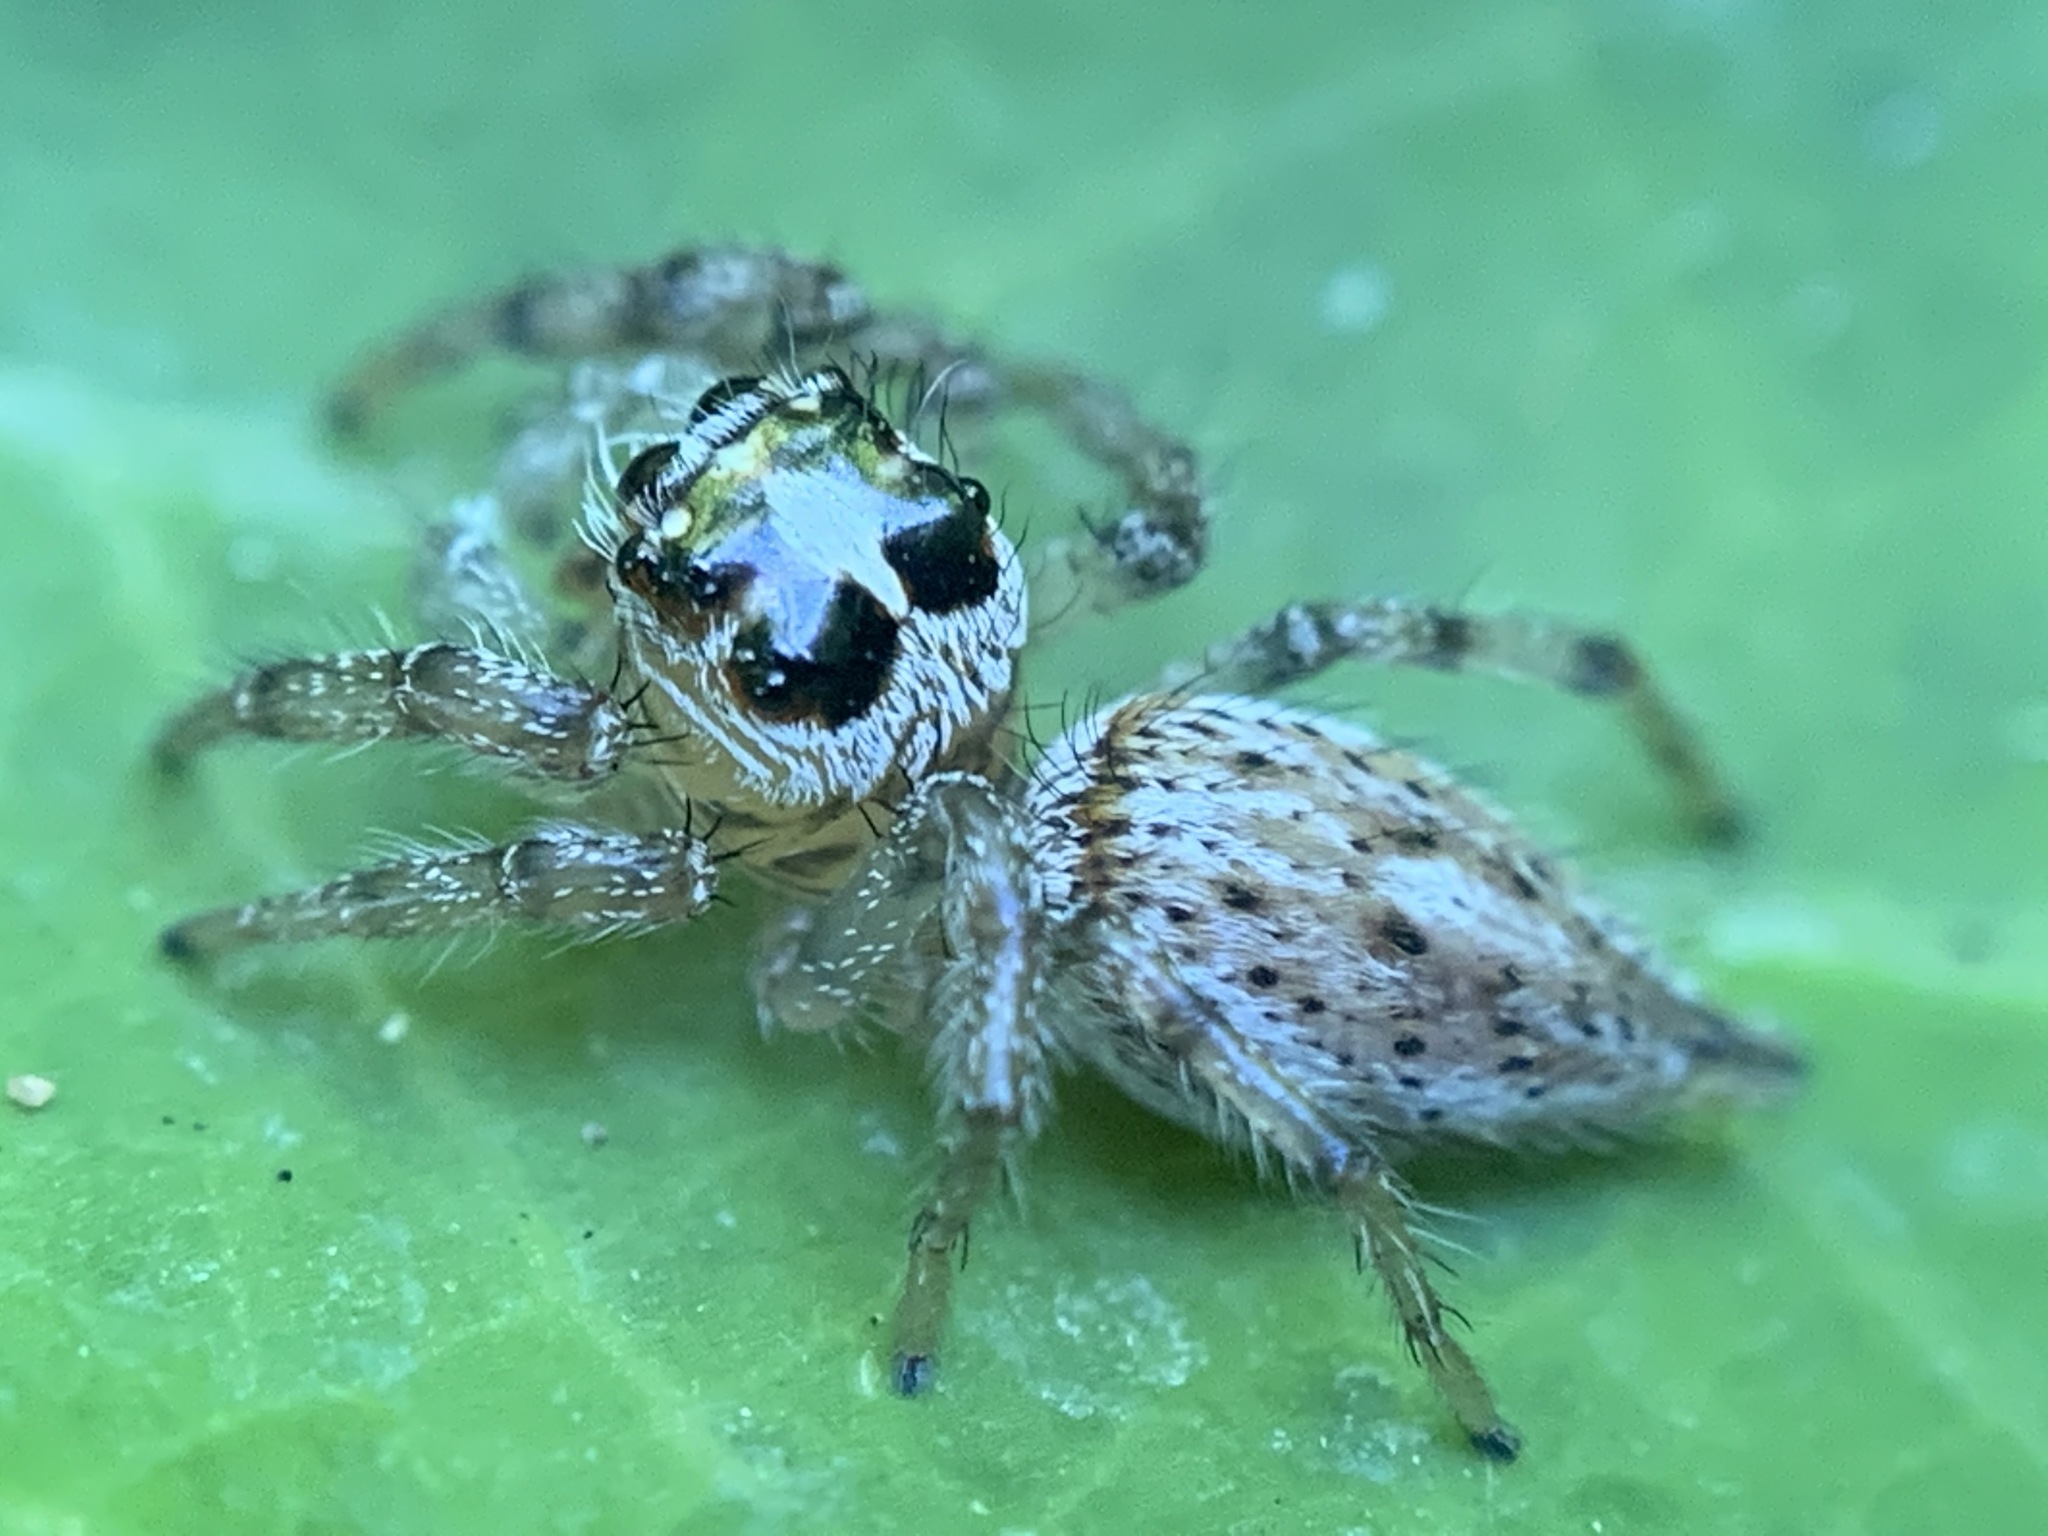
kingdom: Animalia
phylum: Arthropoda
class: Arachnida
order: Araneae
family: Salticidae
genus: Colonus
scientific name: Colonus hesperus
